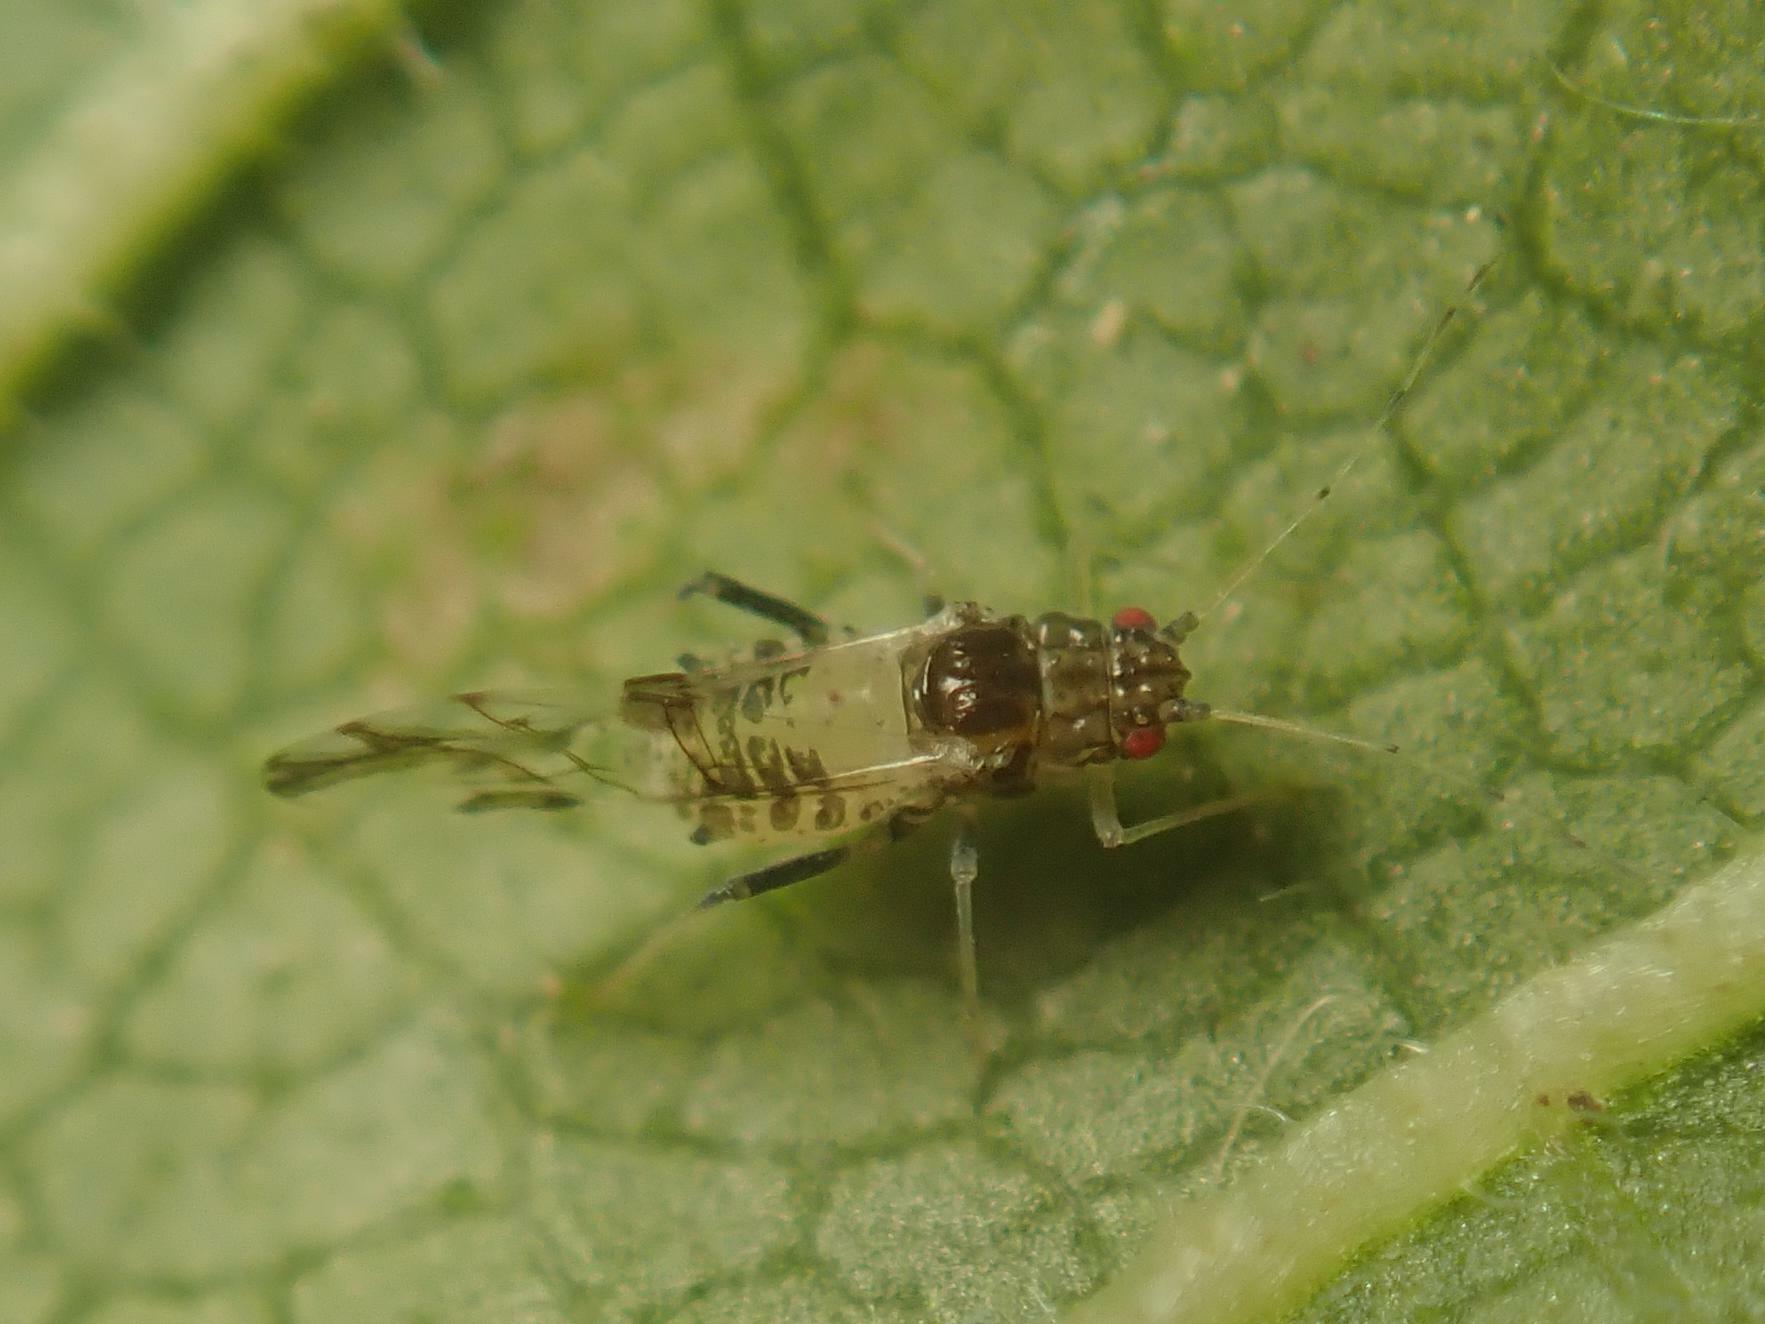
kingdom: Animalia
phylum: Arthropoda
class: Insecta
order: Hemiptera
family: Aphididae
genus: Tinocallis
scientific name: Tinocallis platani
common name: Elm aphid
